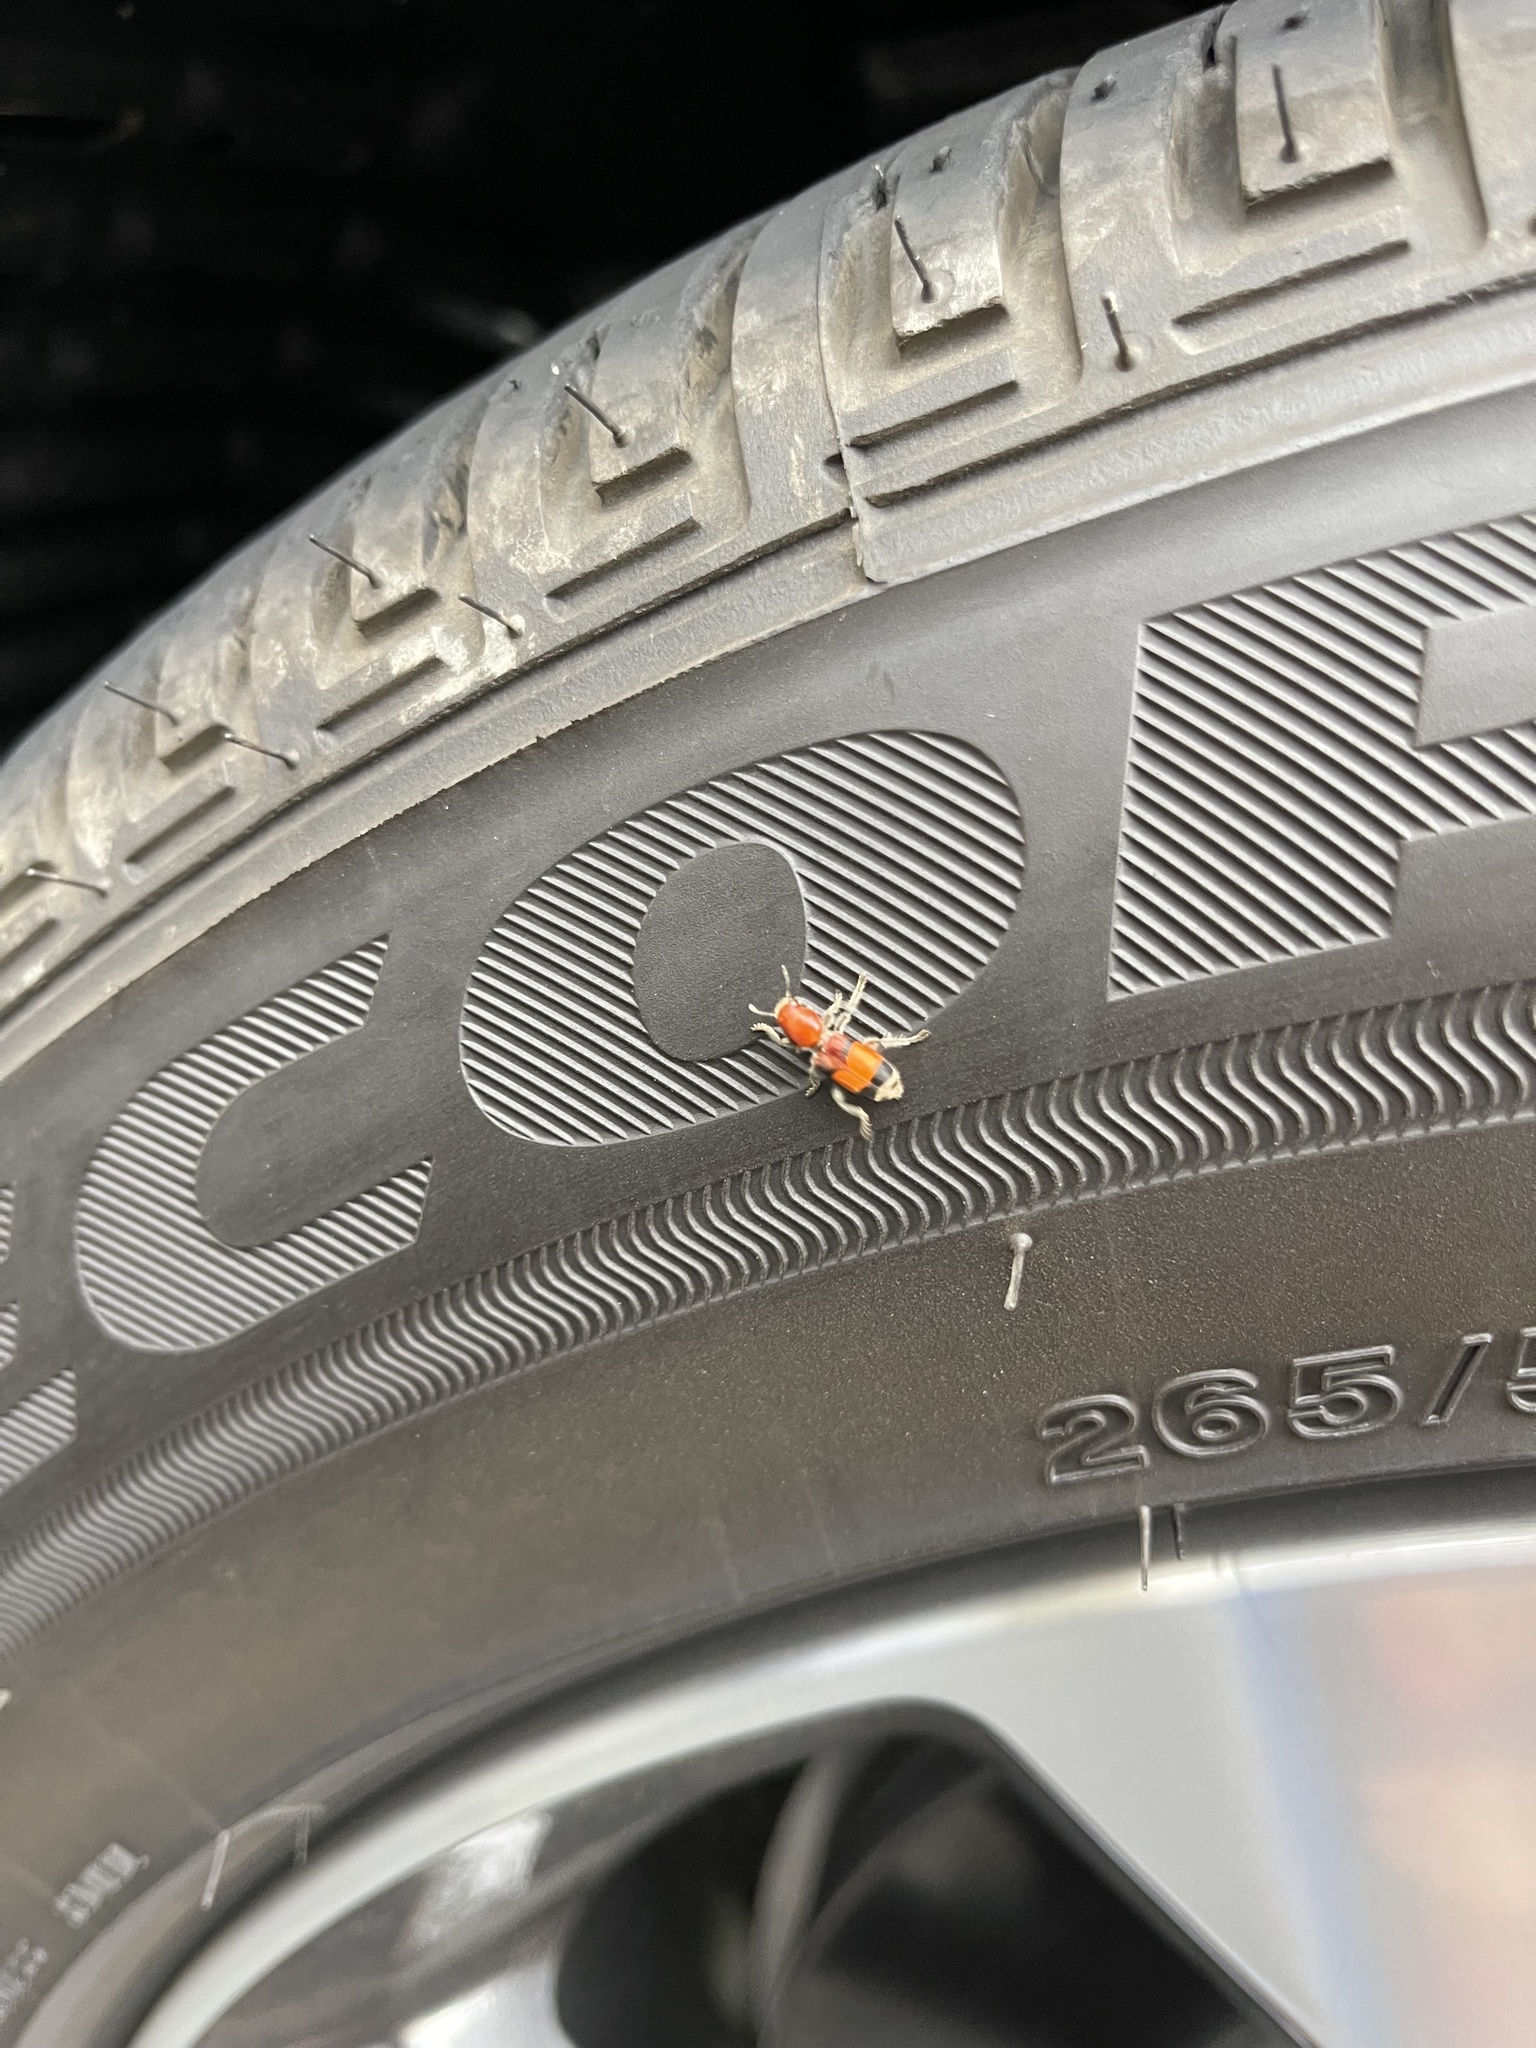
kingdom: Animalia
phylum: Arthropoda
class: Insecta
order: Coleoptera
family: Cleridae
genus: Enoclerus
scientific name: Enoclerus ichneumoneus
